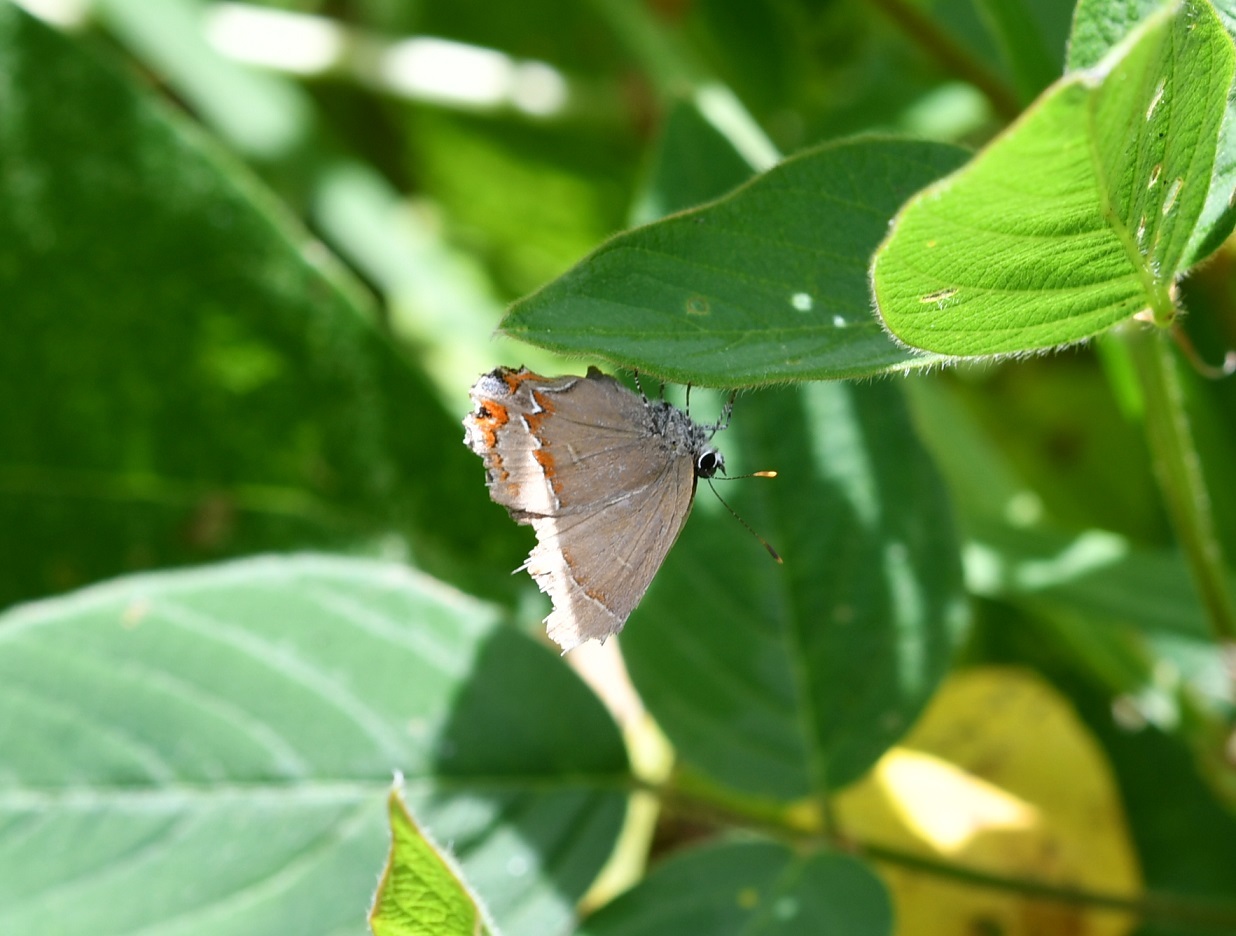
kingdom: Animalia
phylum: Arthropoda
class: Insecta
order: Lepidoptera
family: Lycaenidae
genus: Electrostrymon
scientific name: Electrostrymon
